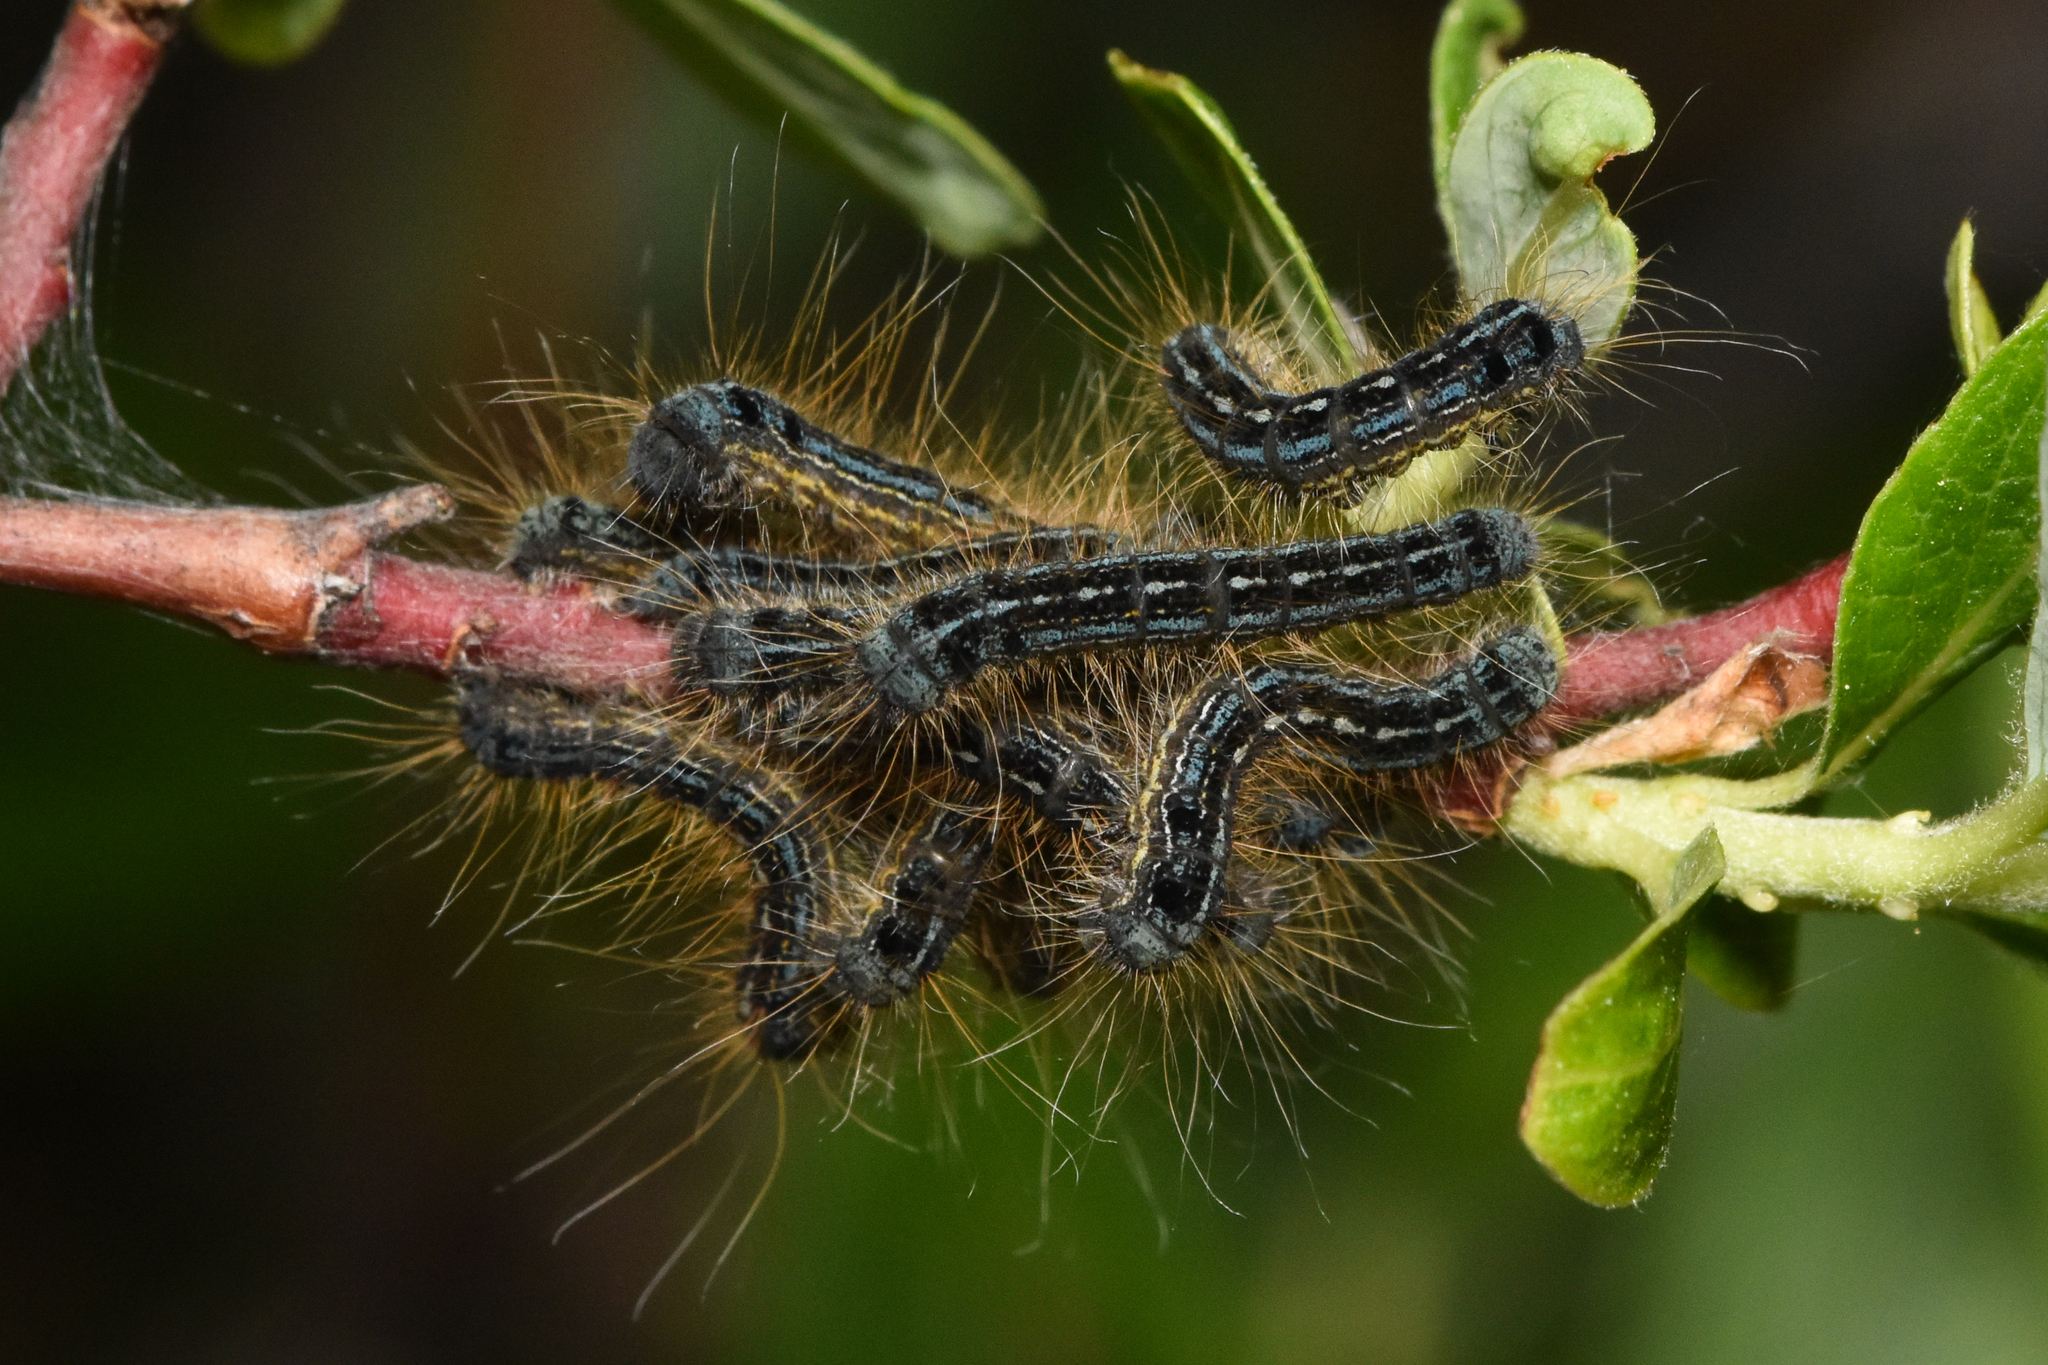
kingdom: Animalia
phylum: Arthropoda
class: Insecta
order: Lepidoptera
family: Lasiocampidae
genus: Malacosoma
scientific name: Malacosoma disstria
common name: Forest tent caterpillar
